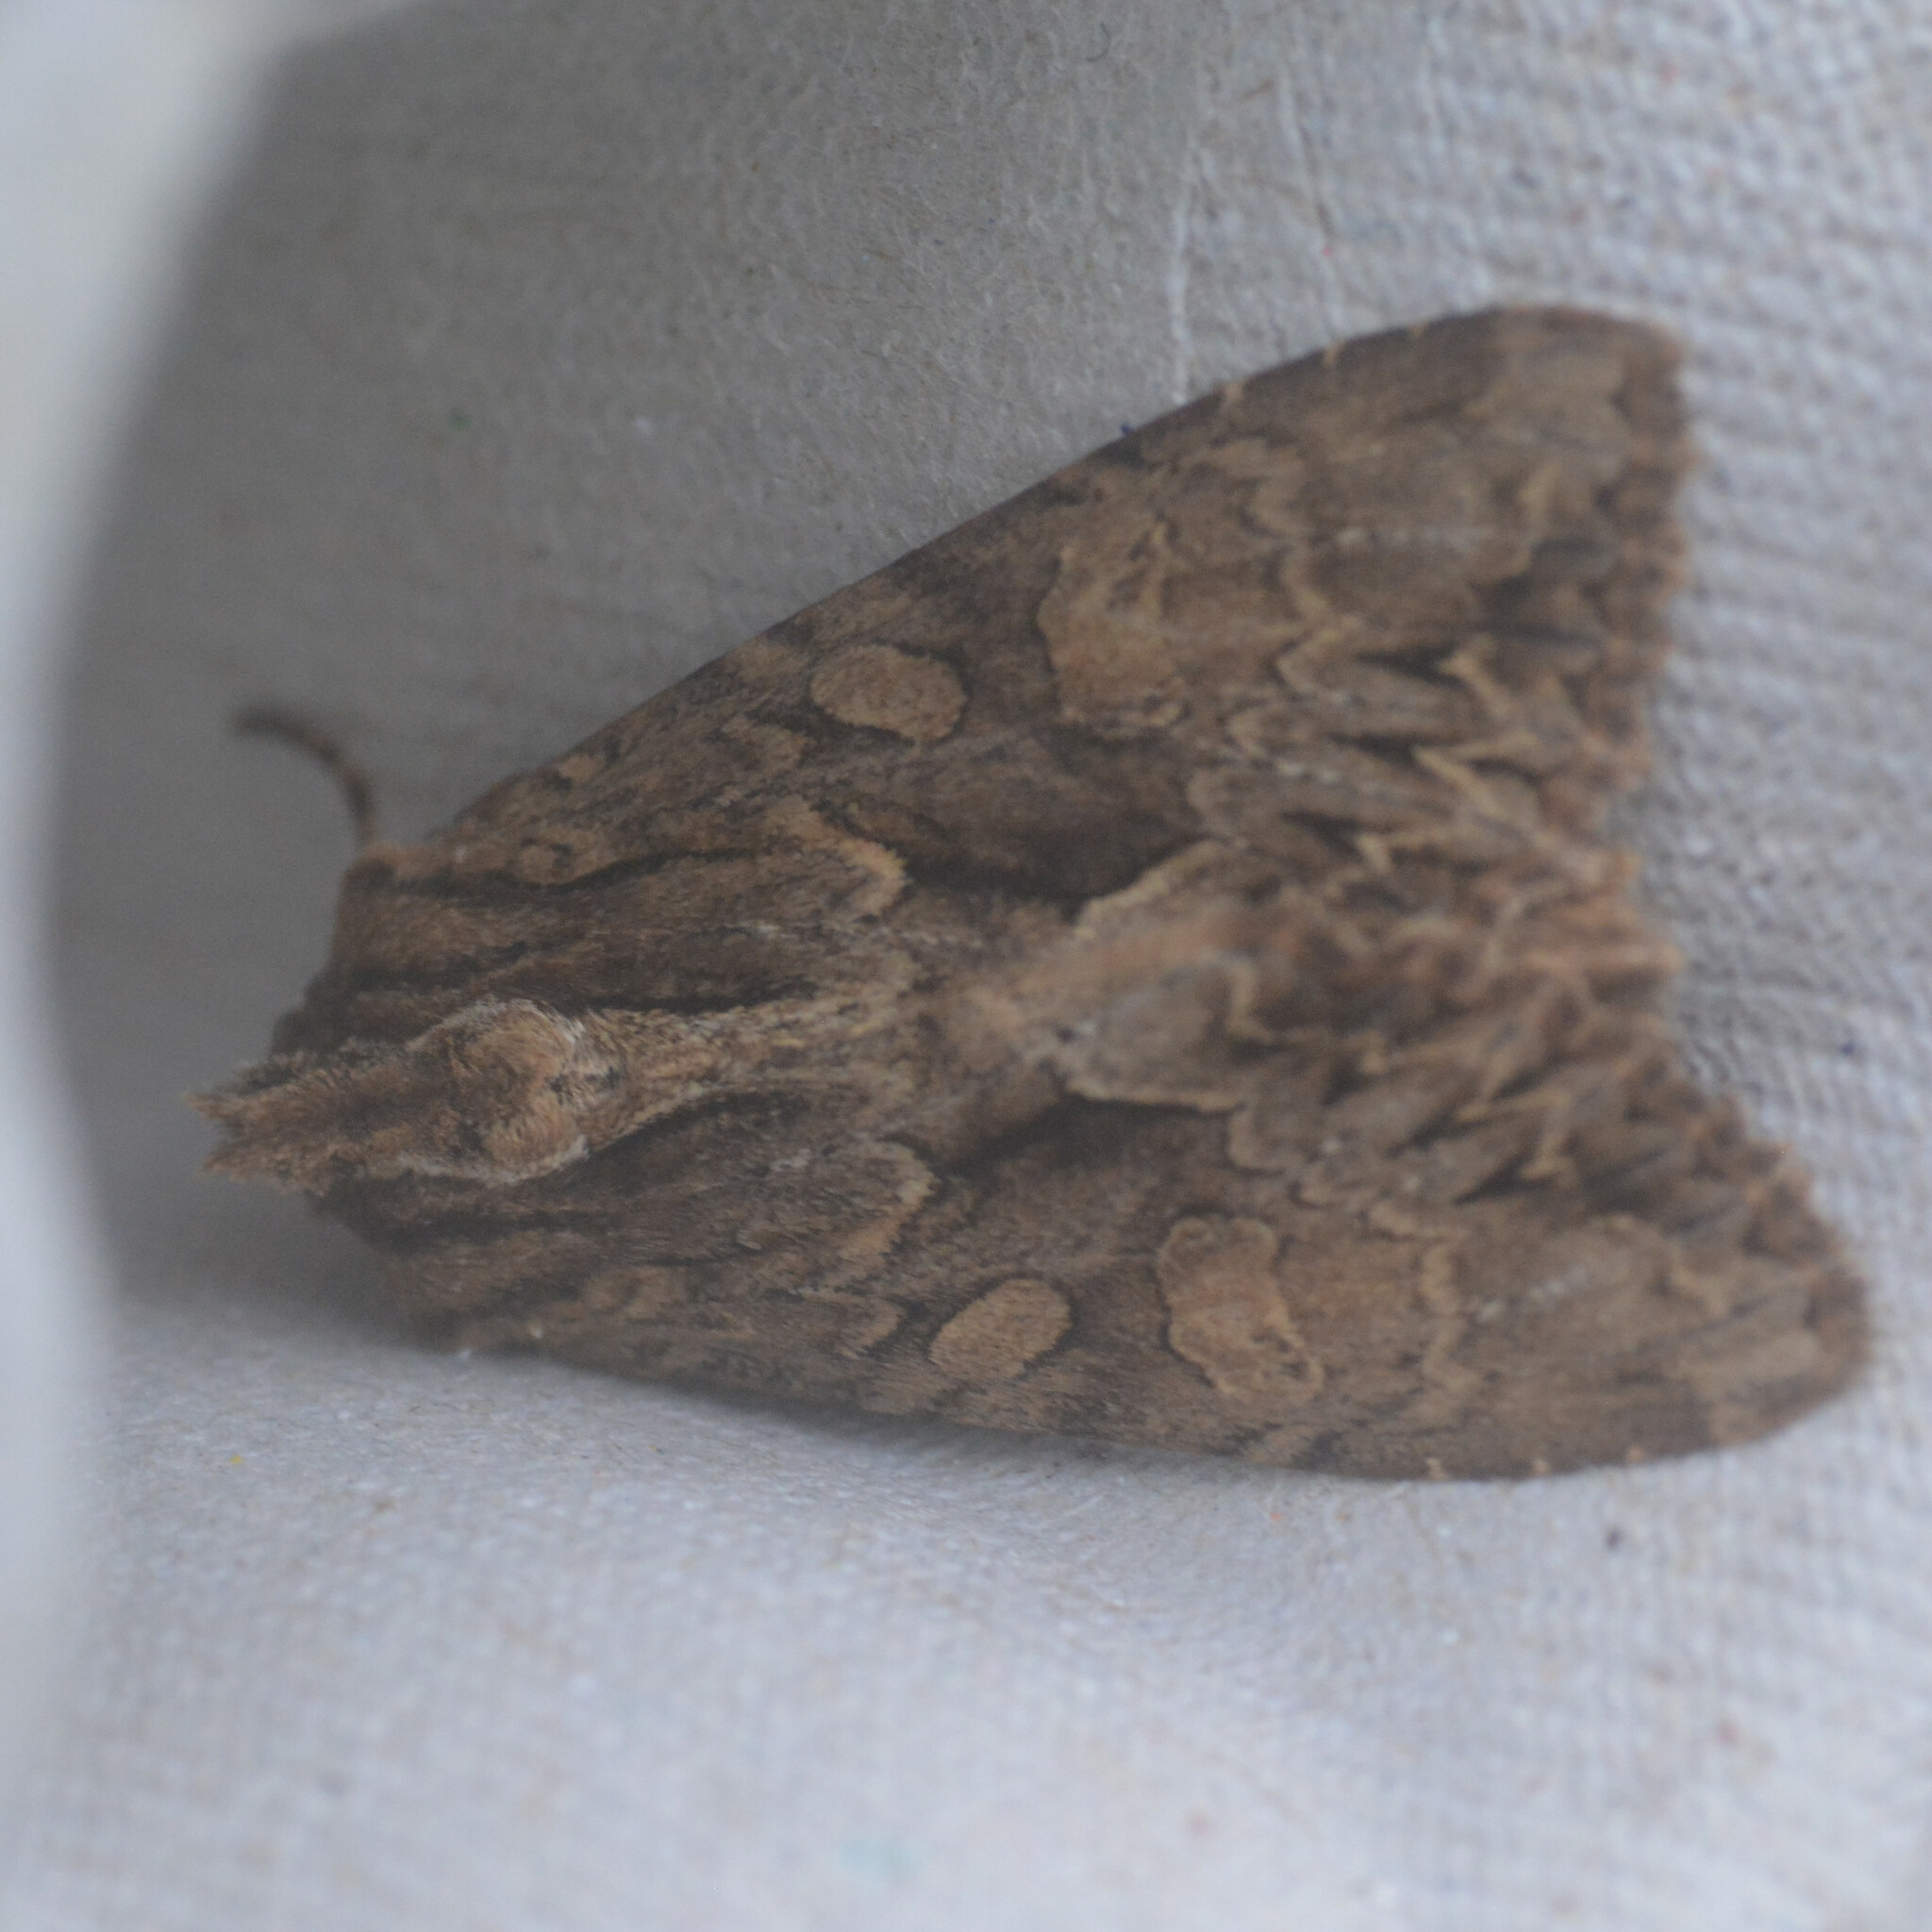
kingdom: Animalia
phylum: Arthropoda
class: Insecta
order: Lepidoptera
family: Noctuidae
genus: Apamea
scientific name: Apamea monoglypha
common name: Dark arches
